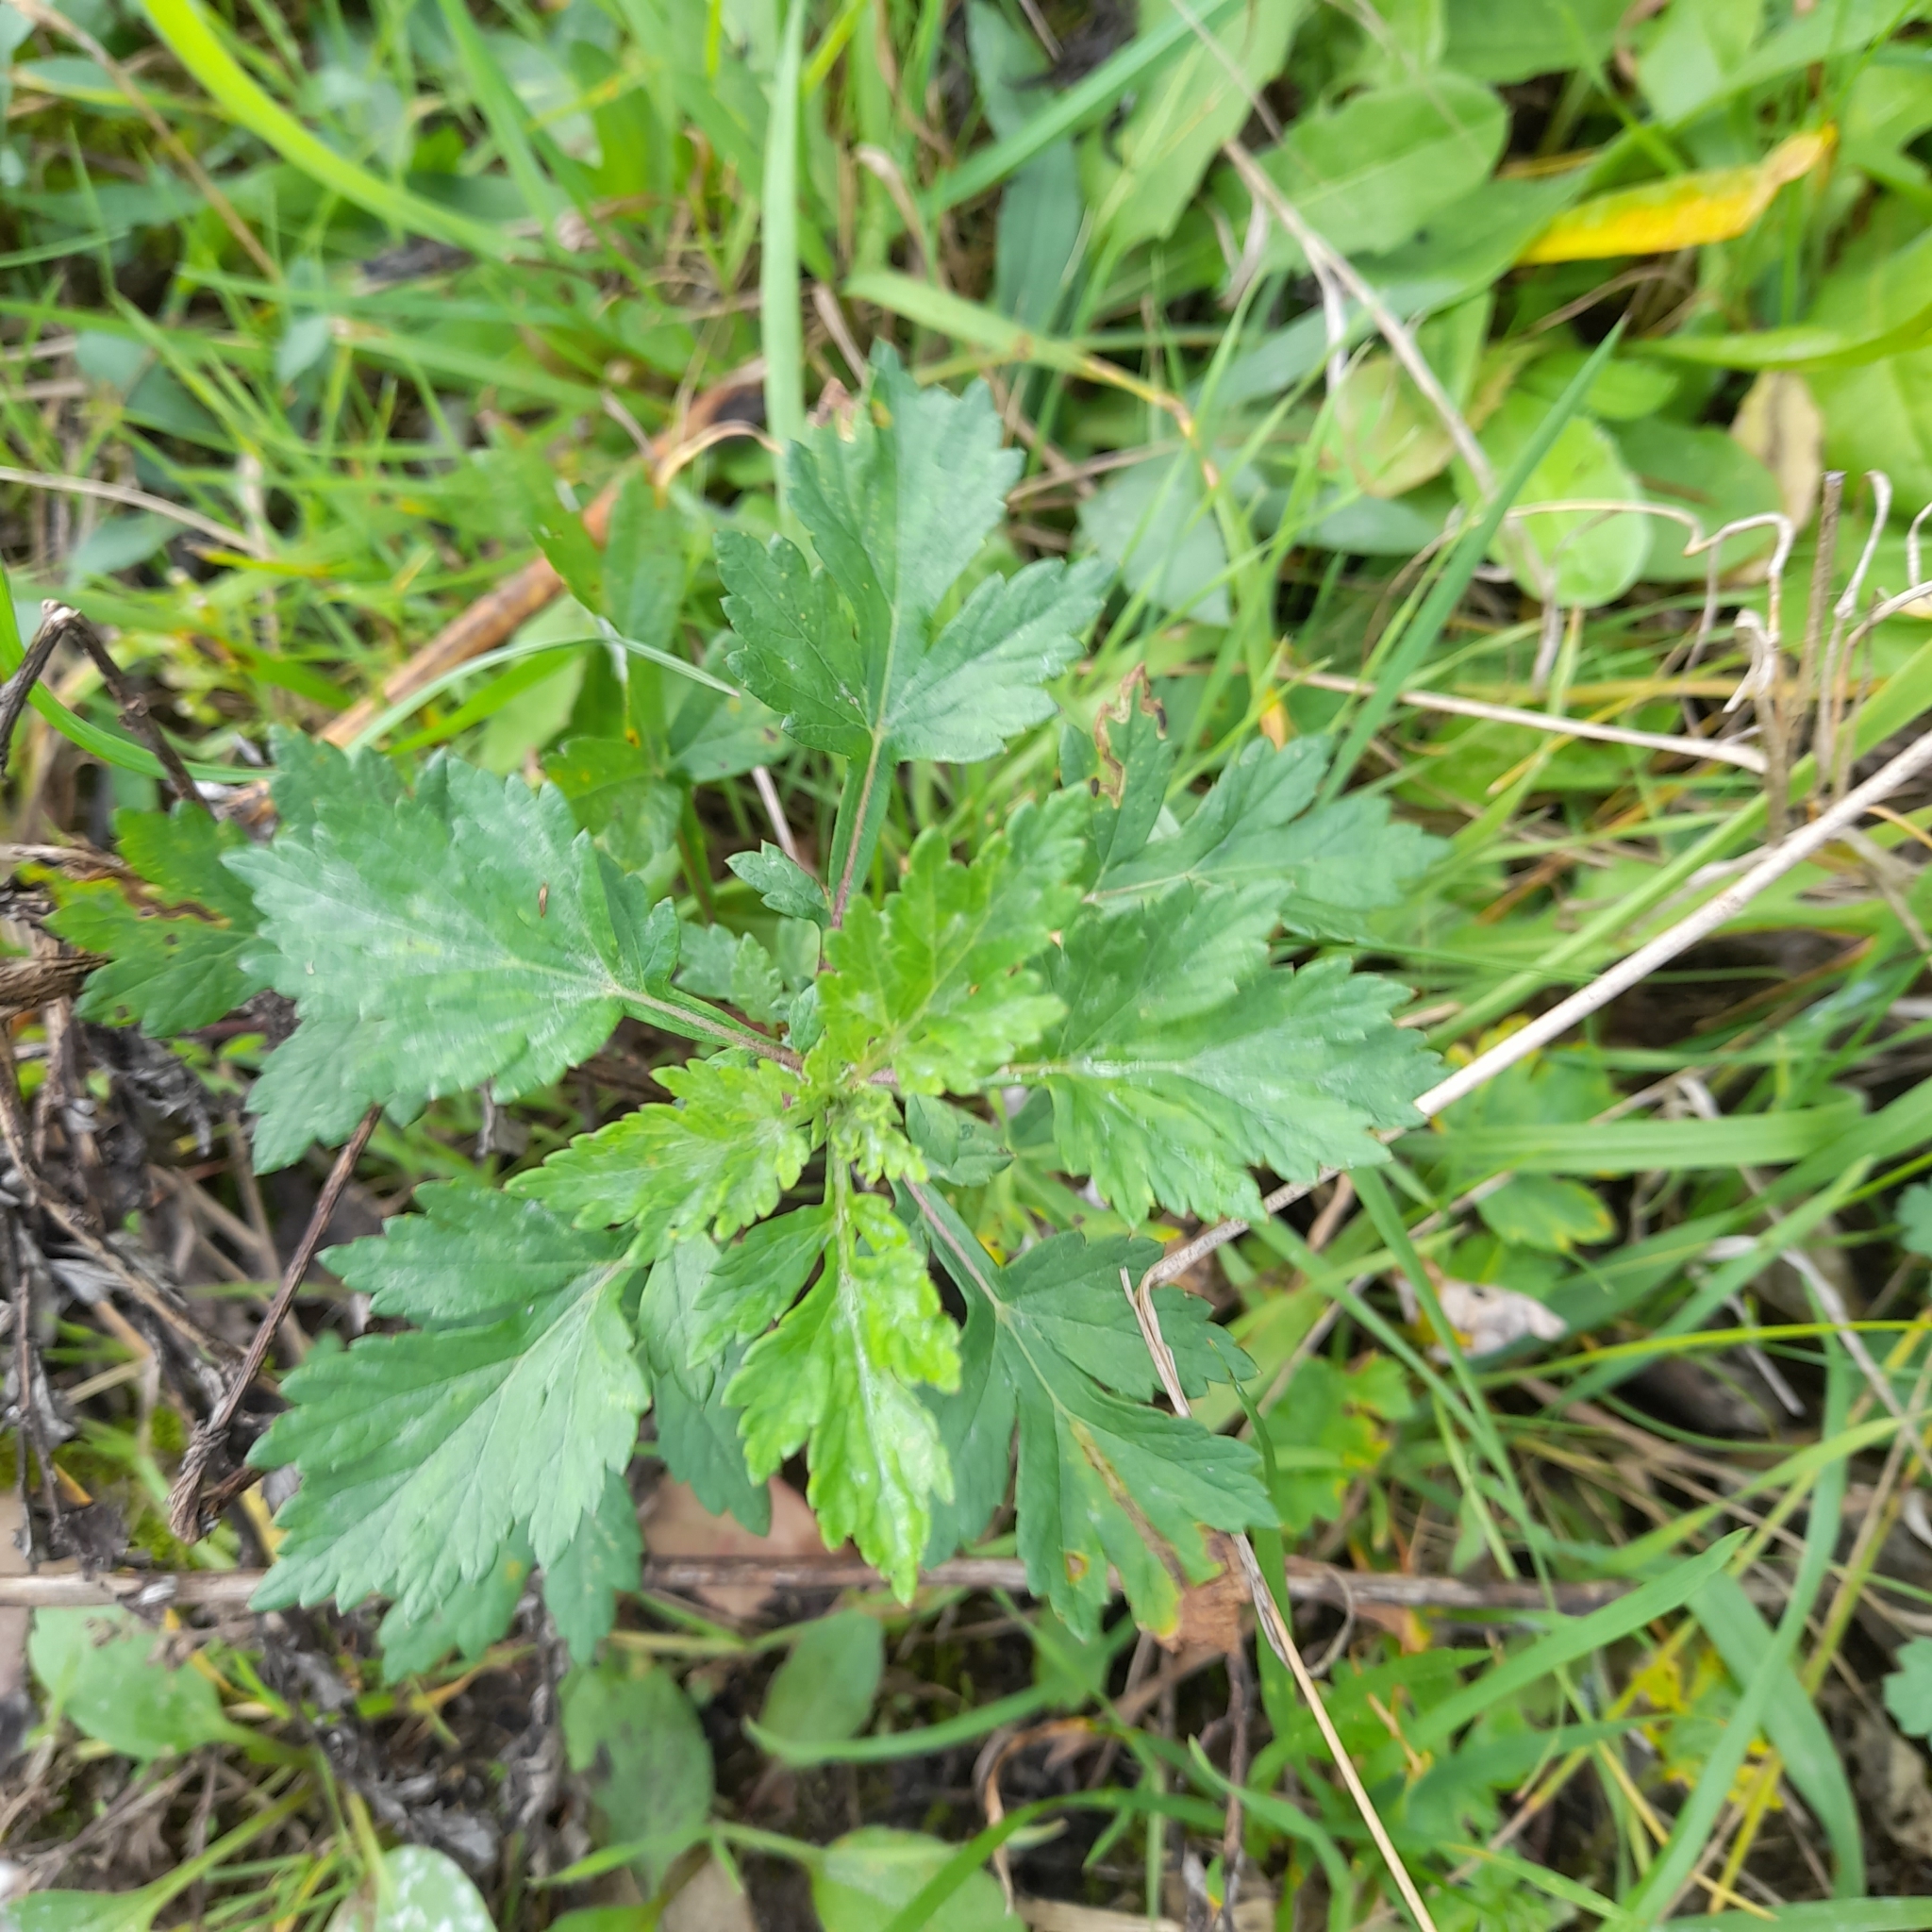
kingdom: Plantae
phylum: Tracheophyta
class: Magnoliopsida
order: Asterales
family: Asteraceae
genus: Artemisia
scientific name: Artemisia vulgaris
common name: Mugwort
